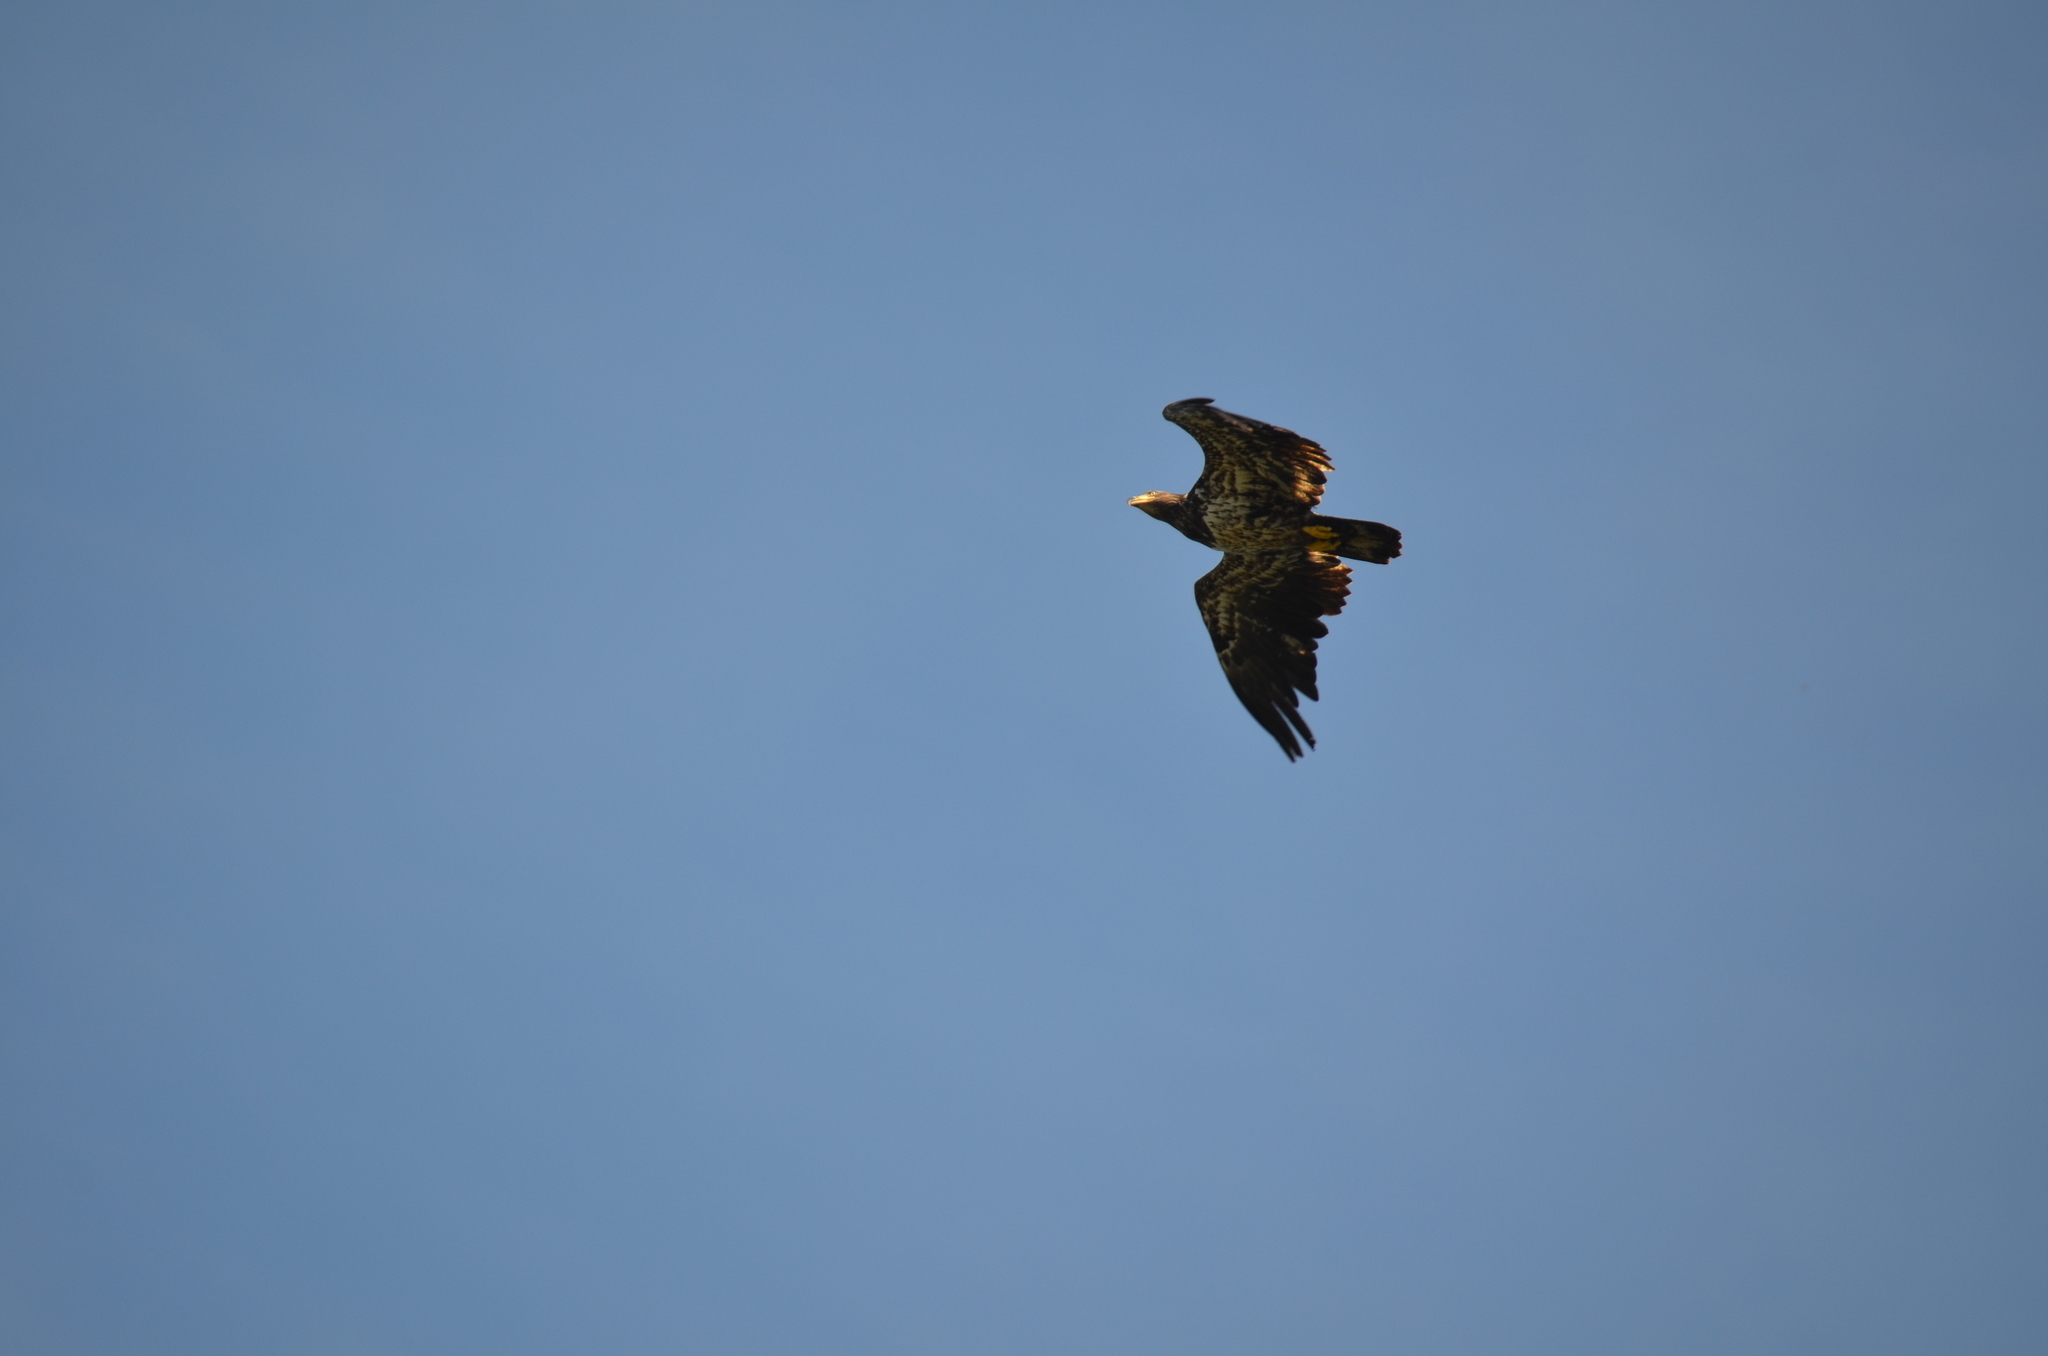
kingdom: Animalia
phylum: Chordata
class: Aves
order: Accipitriformes
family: Accipitridae
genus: Haliaeetus
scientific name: Haliaeetus leucocephalus
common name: Bald eagle
